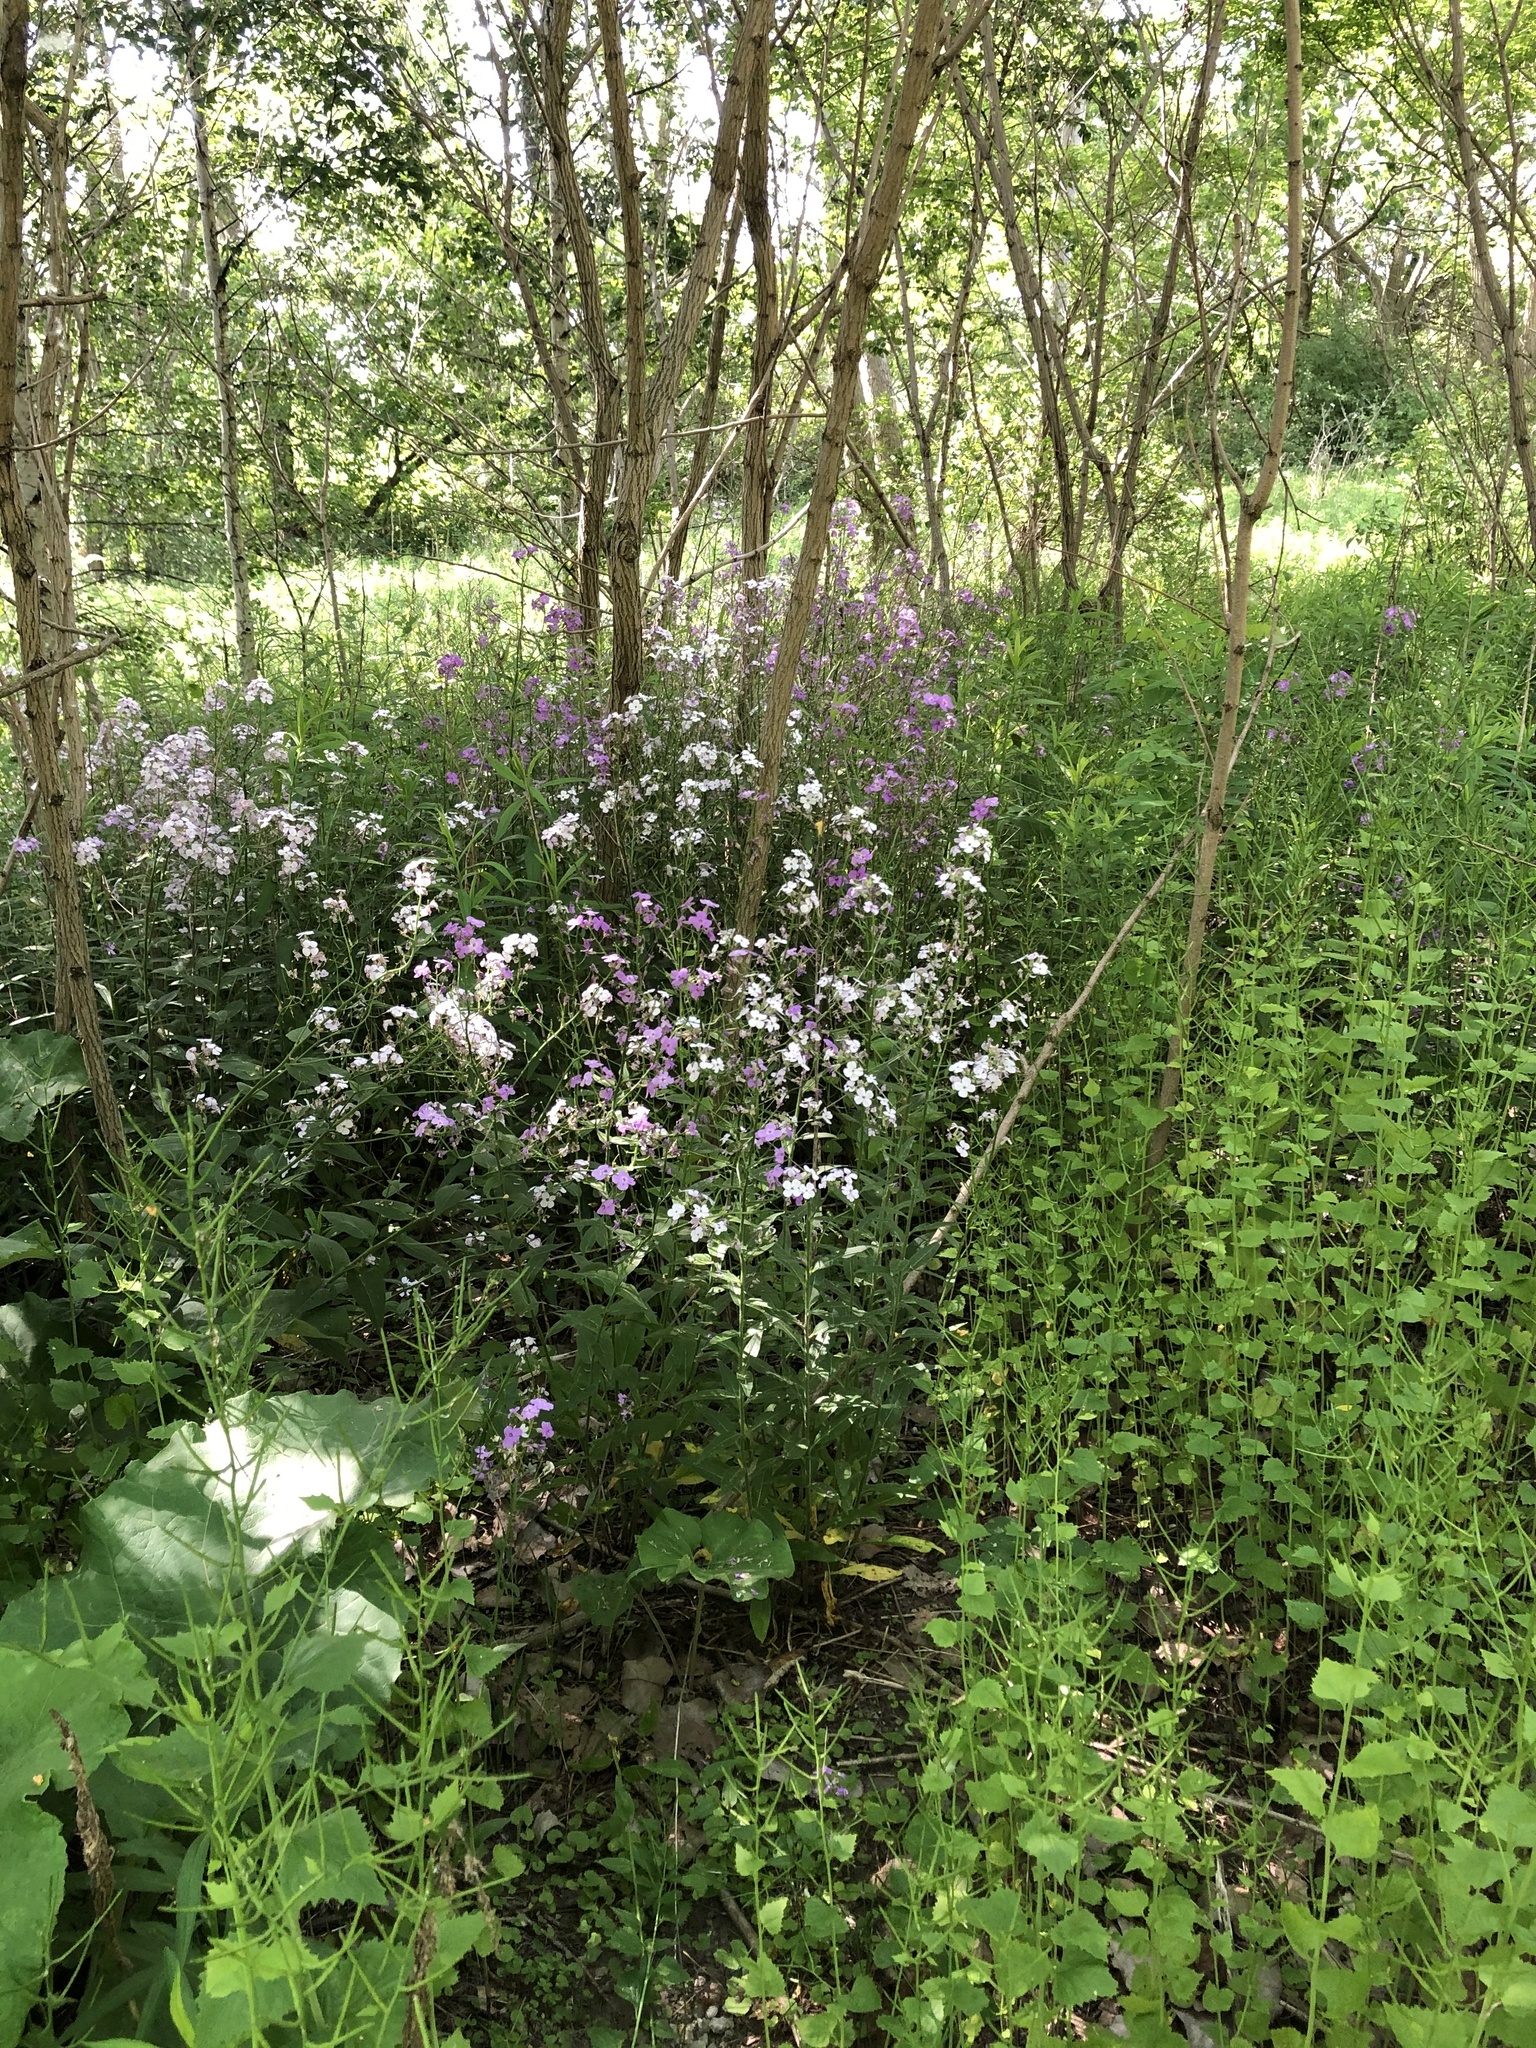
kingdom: Plantae
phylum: Tracheophyta
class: Magnoliopsida
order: Brassicales
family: Brassicaceae
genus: Hesperis
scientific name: Hesperis matronalis
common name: Dame's-violet
